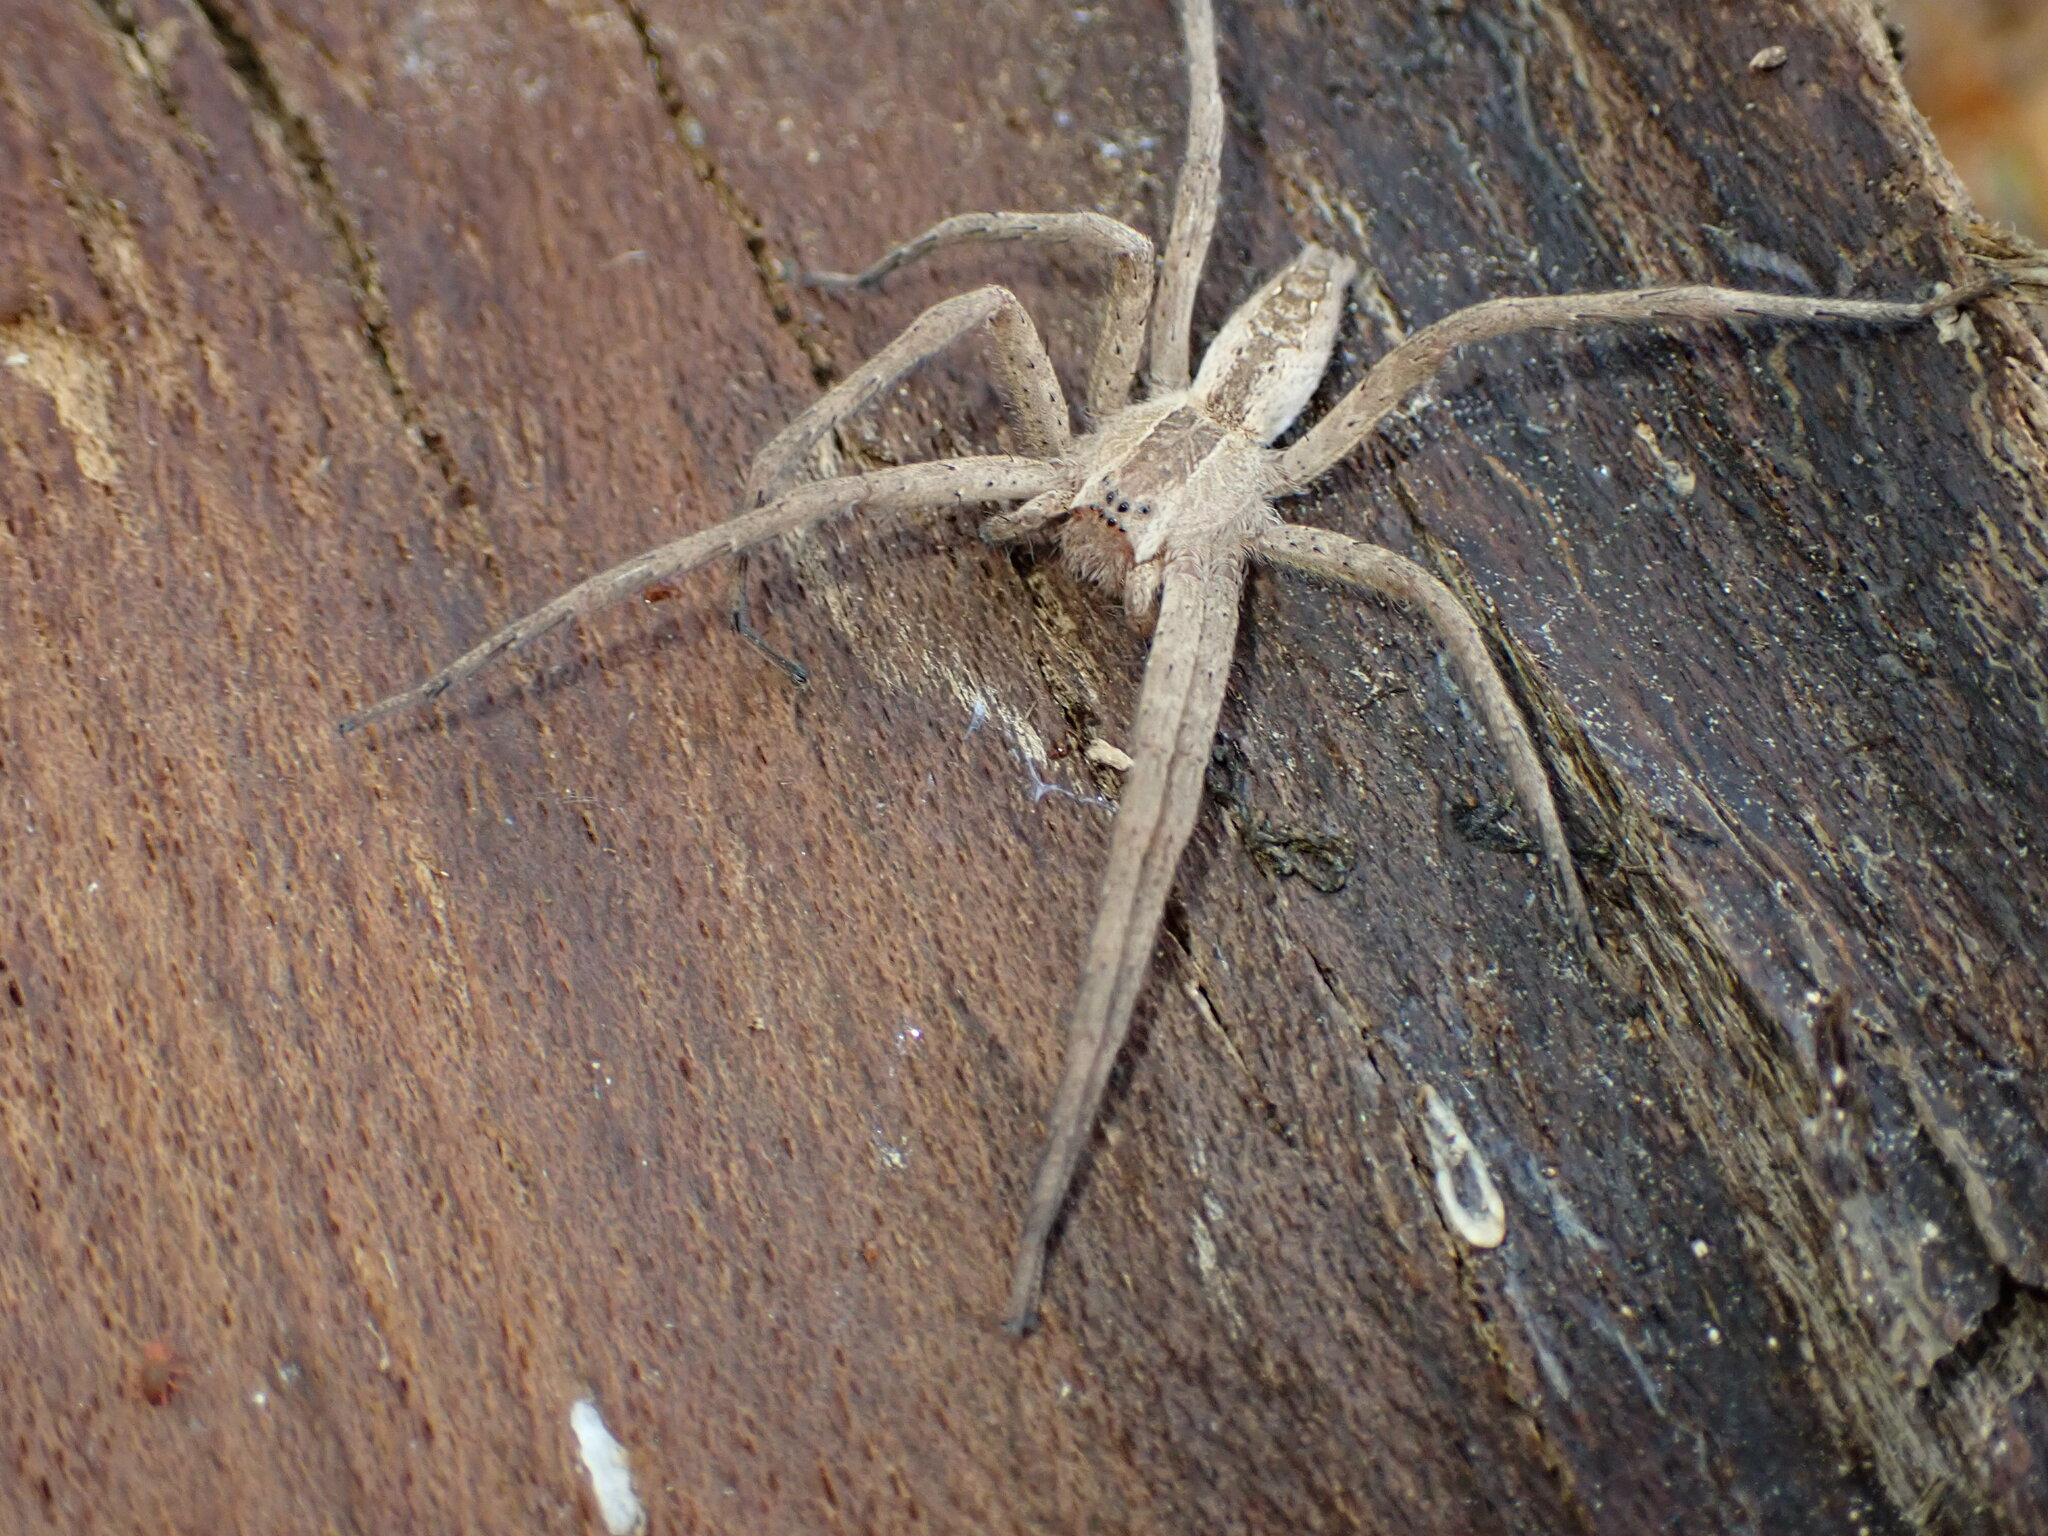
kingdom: Animalia
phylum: Arthropoda
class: Arachnida
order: Araneae
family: Pisauridae
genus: Pisaurina
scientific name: Pisaurina mira
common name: American nursery web spider
